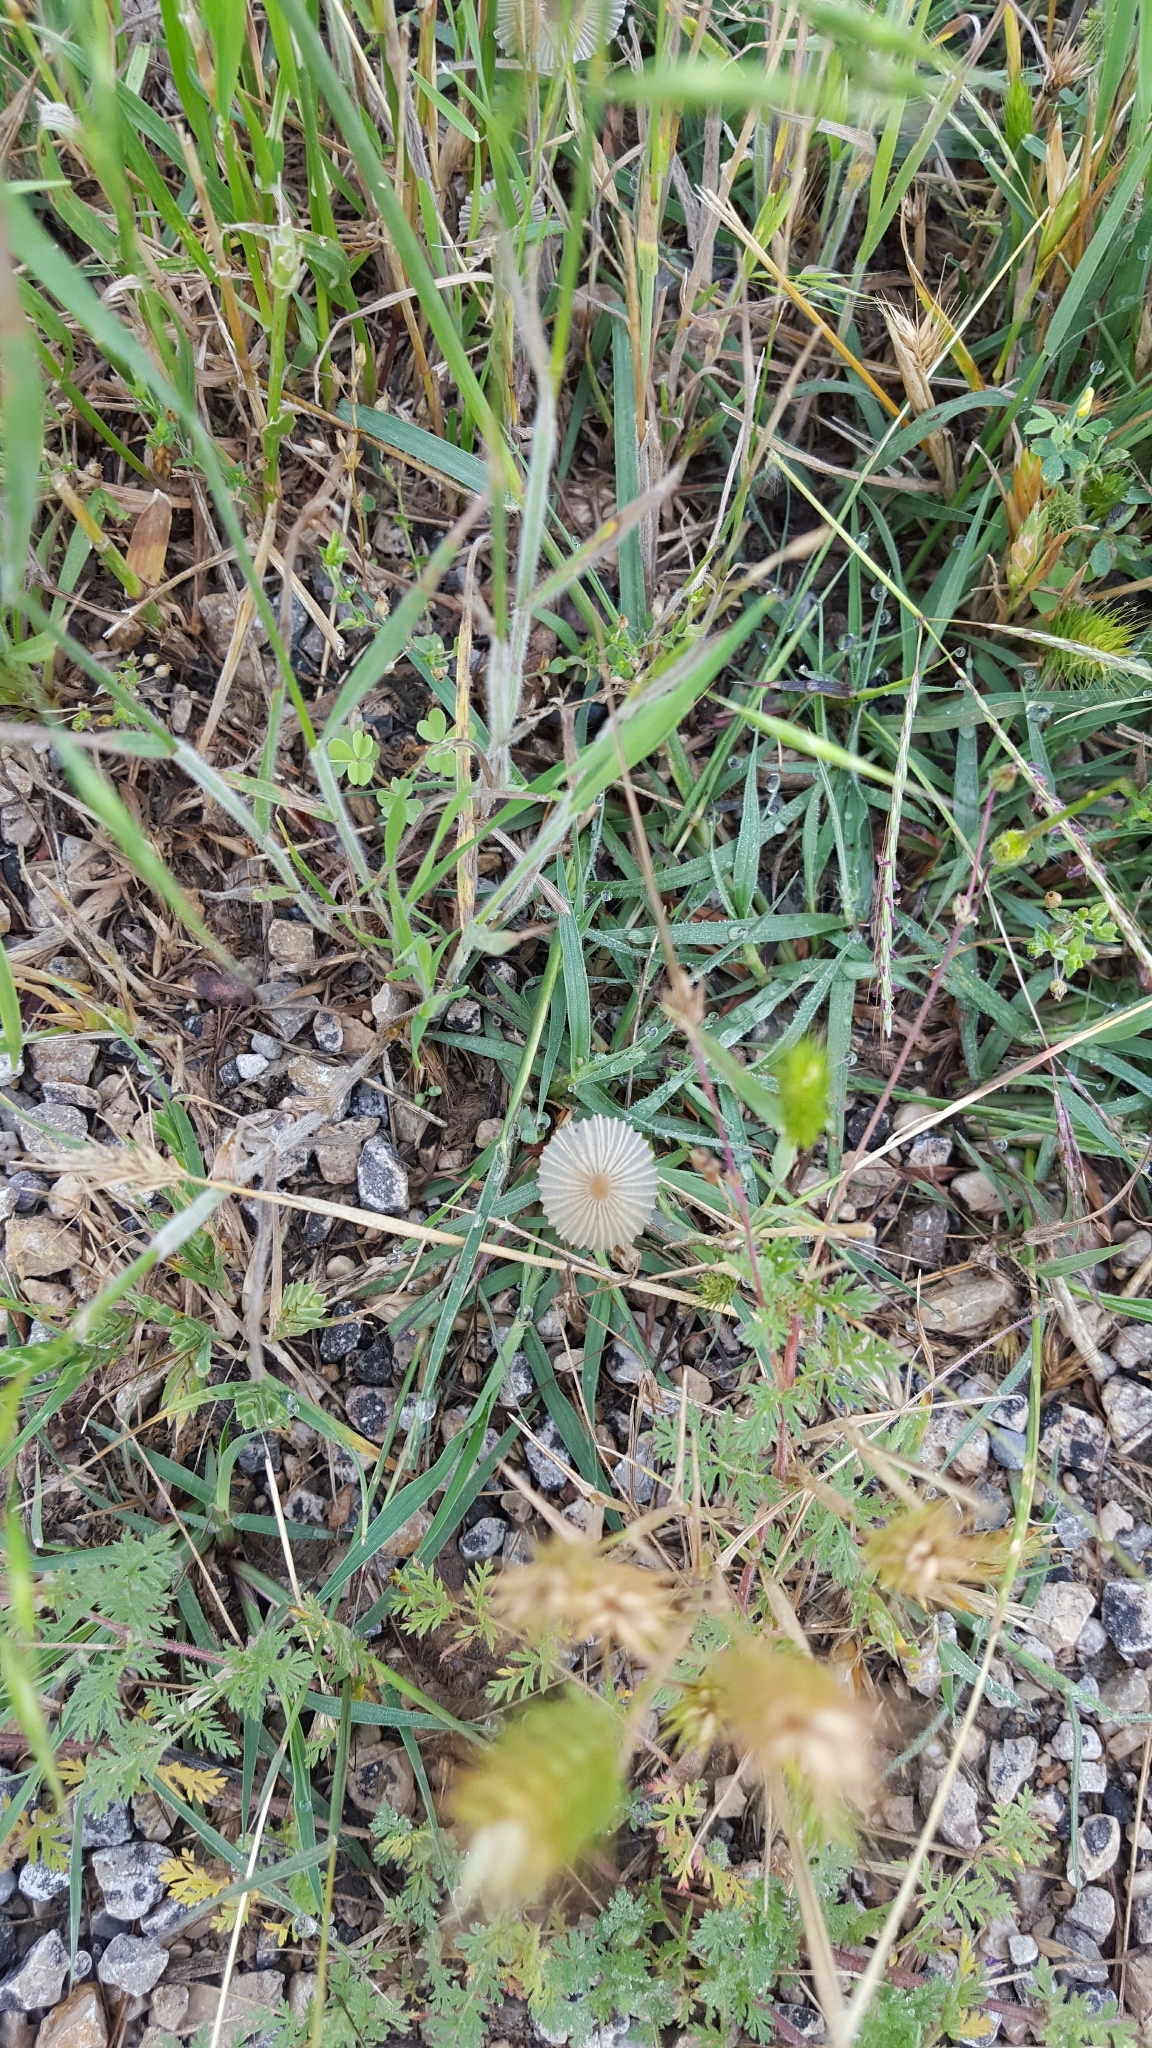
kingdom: Fungi
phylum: Basidiomycota
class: Agaricomycetes
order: Agaricales
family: Psathyrellaceae
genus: Parasola
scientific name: Parasola plicatilis
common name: Pleated inkcap
